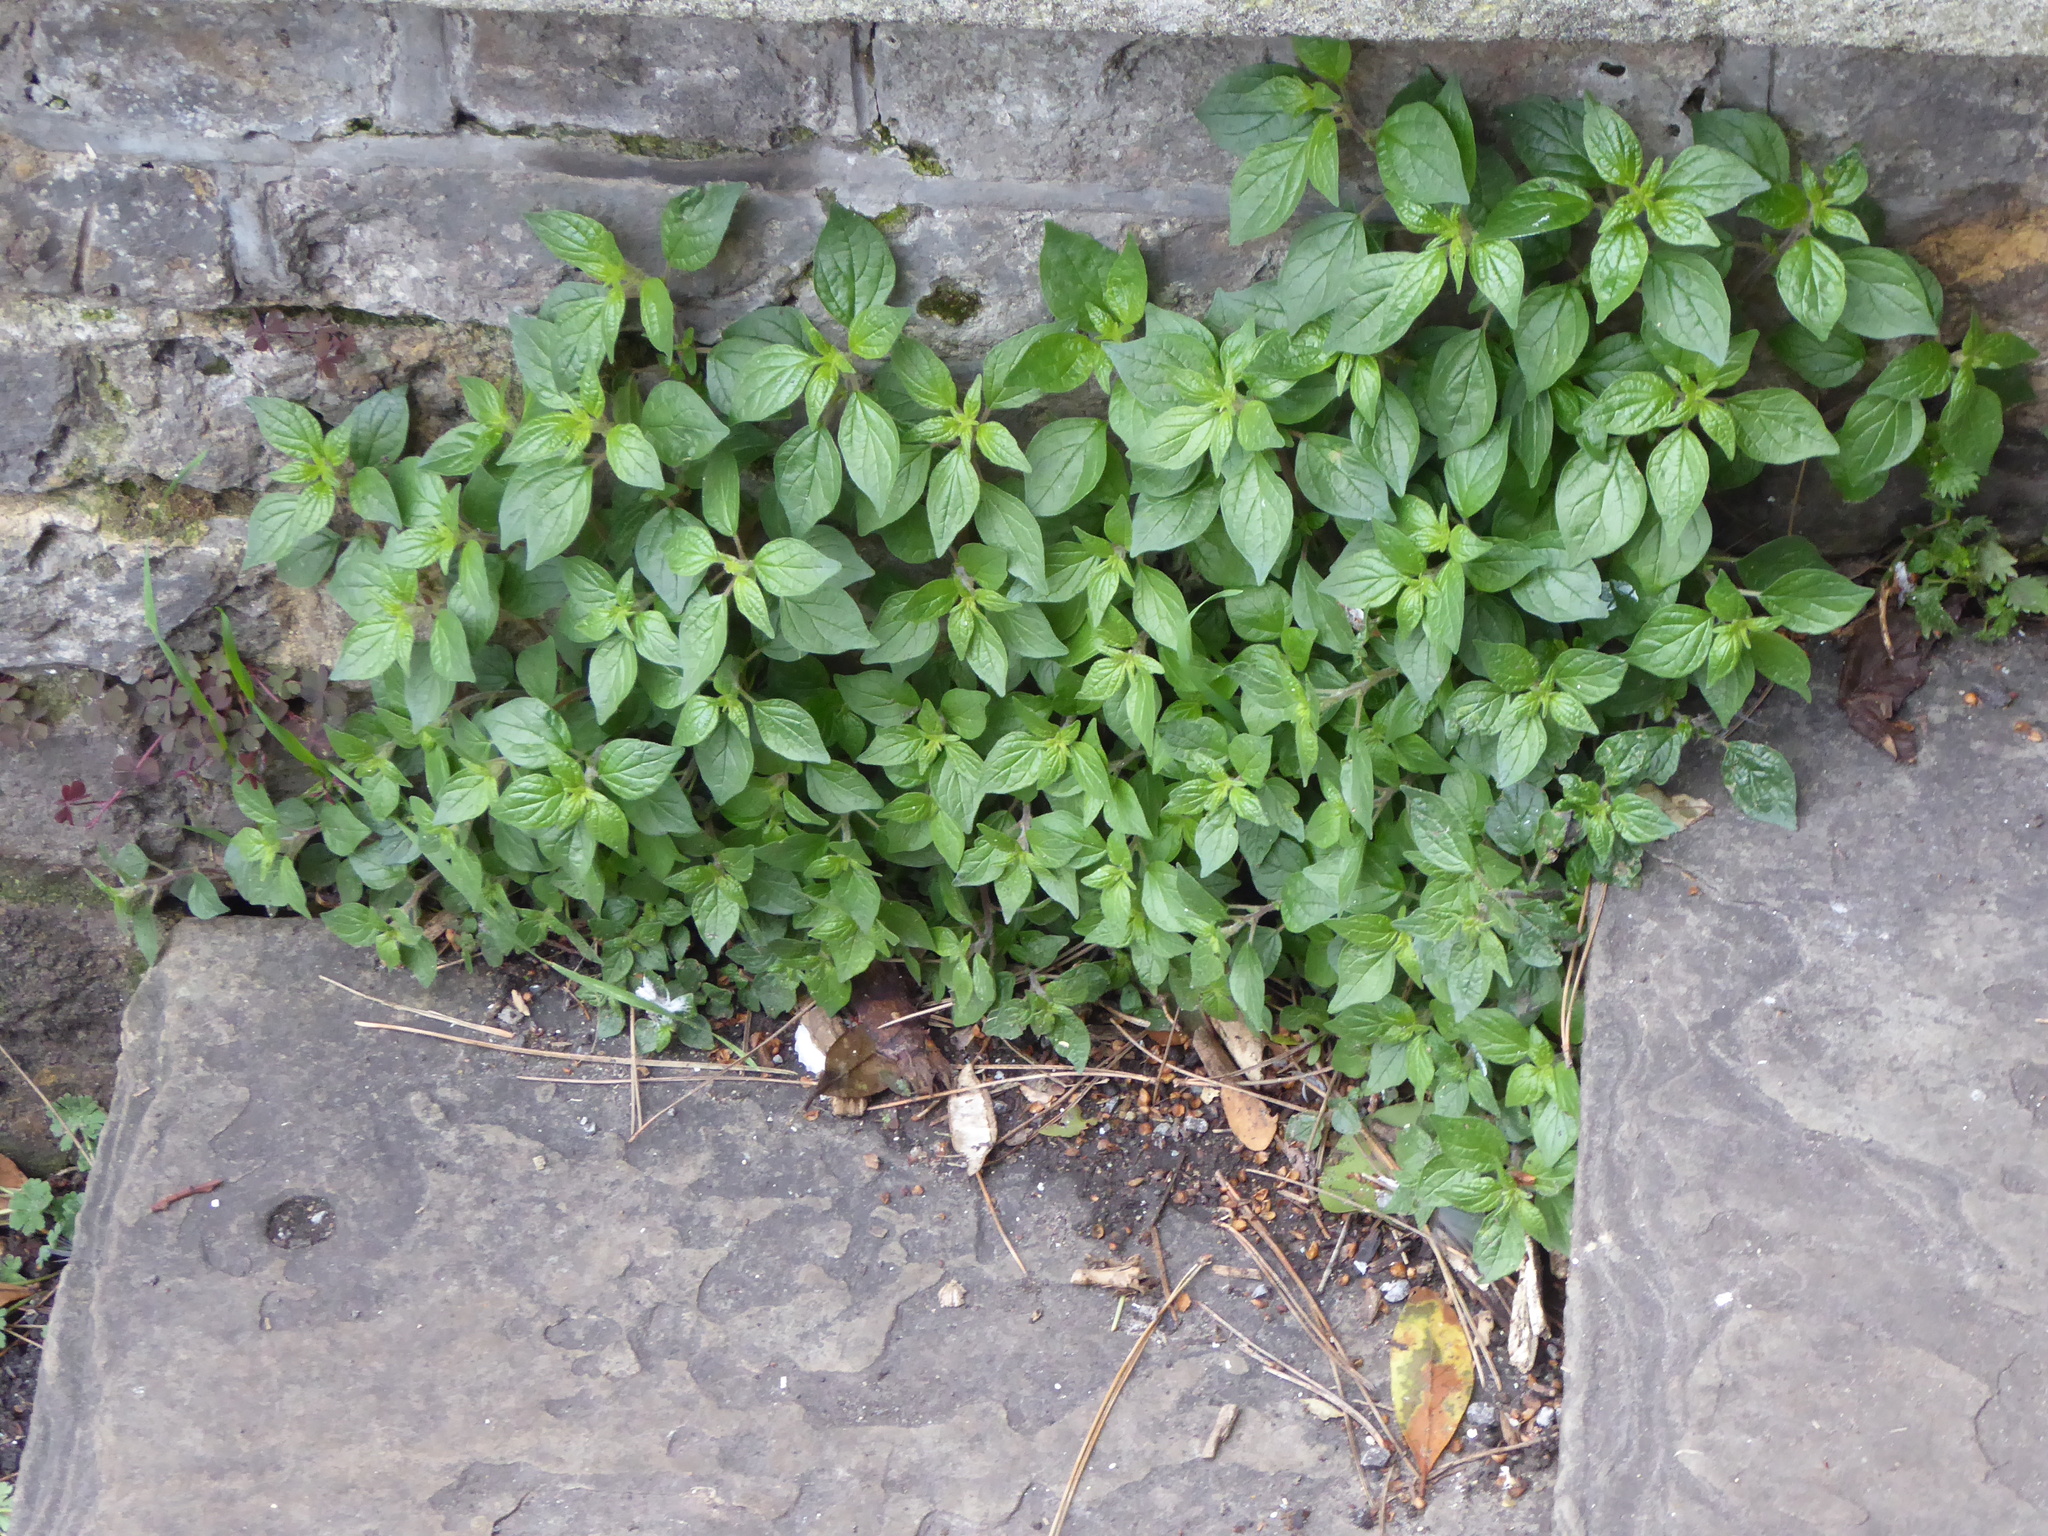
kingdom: Plantae
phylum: Tracheophyta
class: Magnoliopsida
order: Rosales
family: Urticaceae
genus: Parietaria
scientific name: Parietaria judaica
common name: Pellitory-of-the-wall
